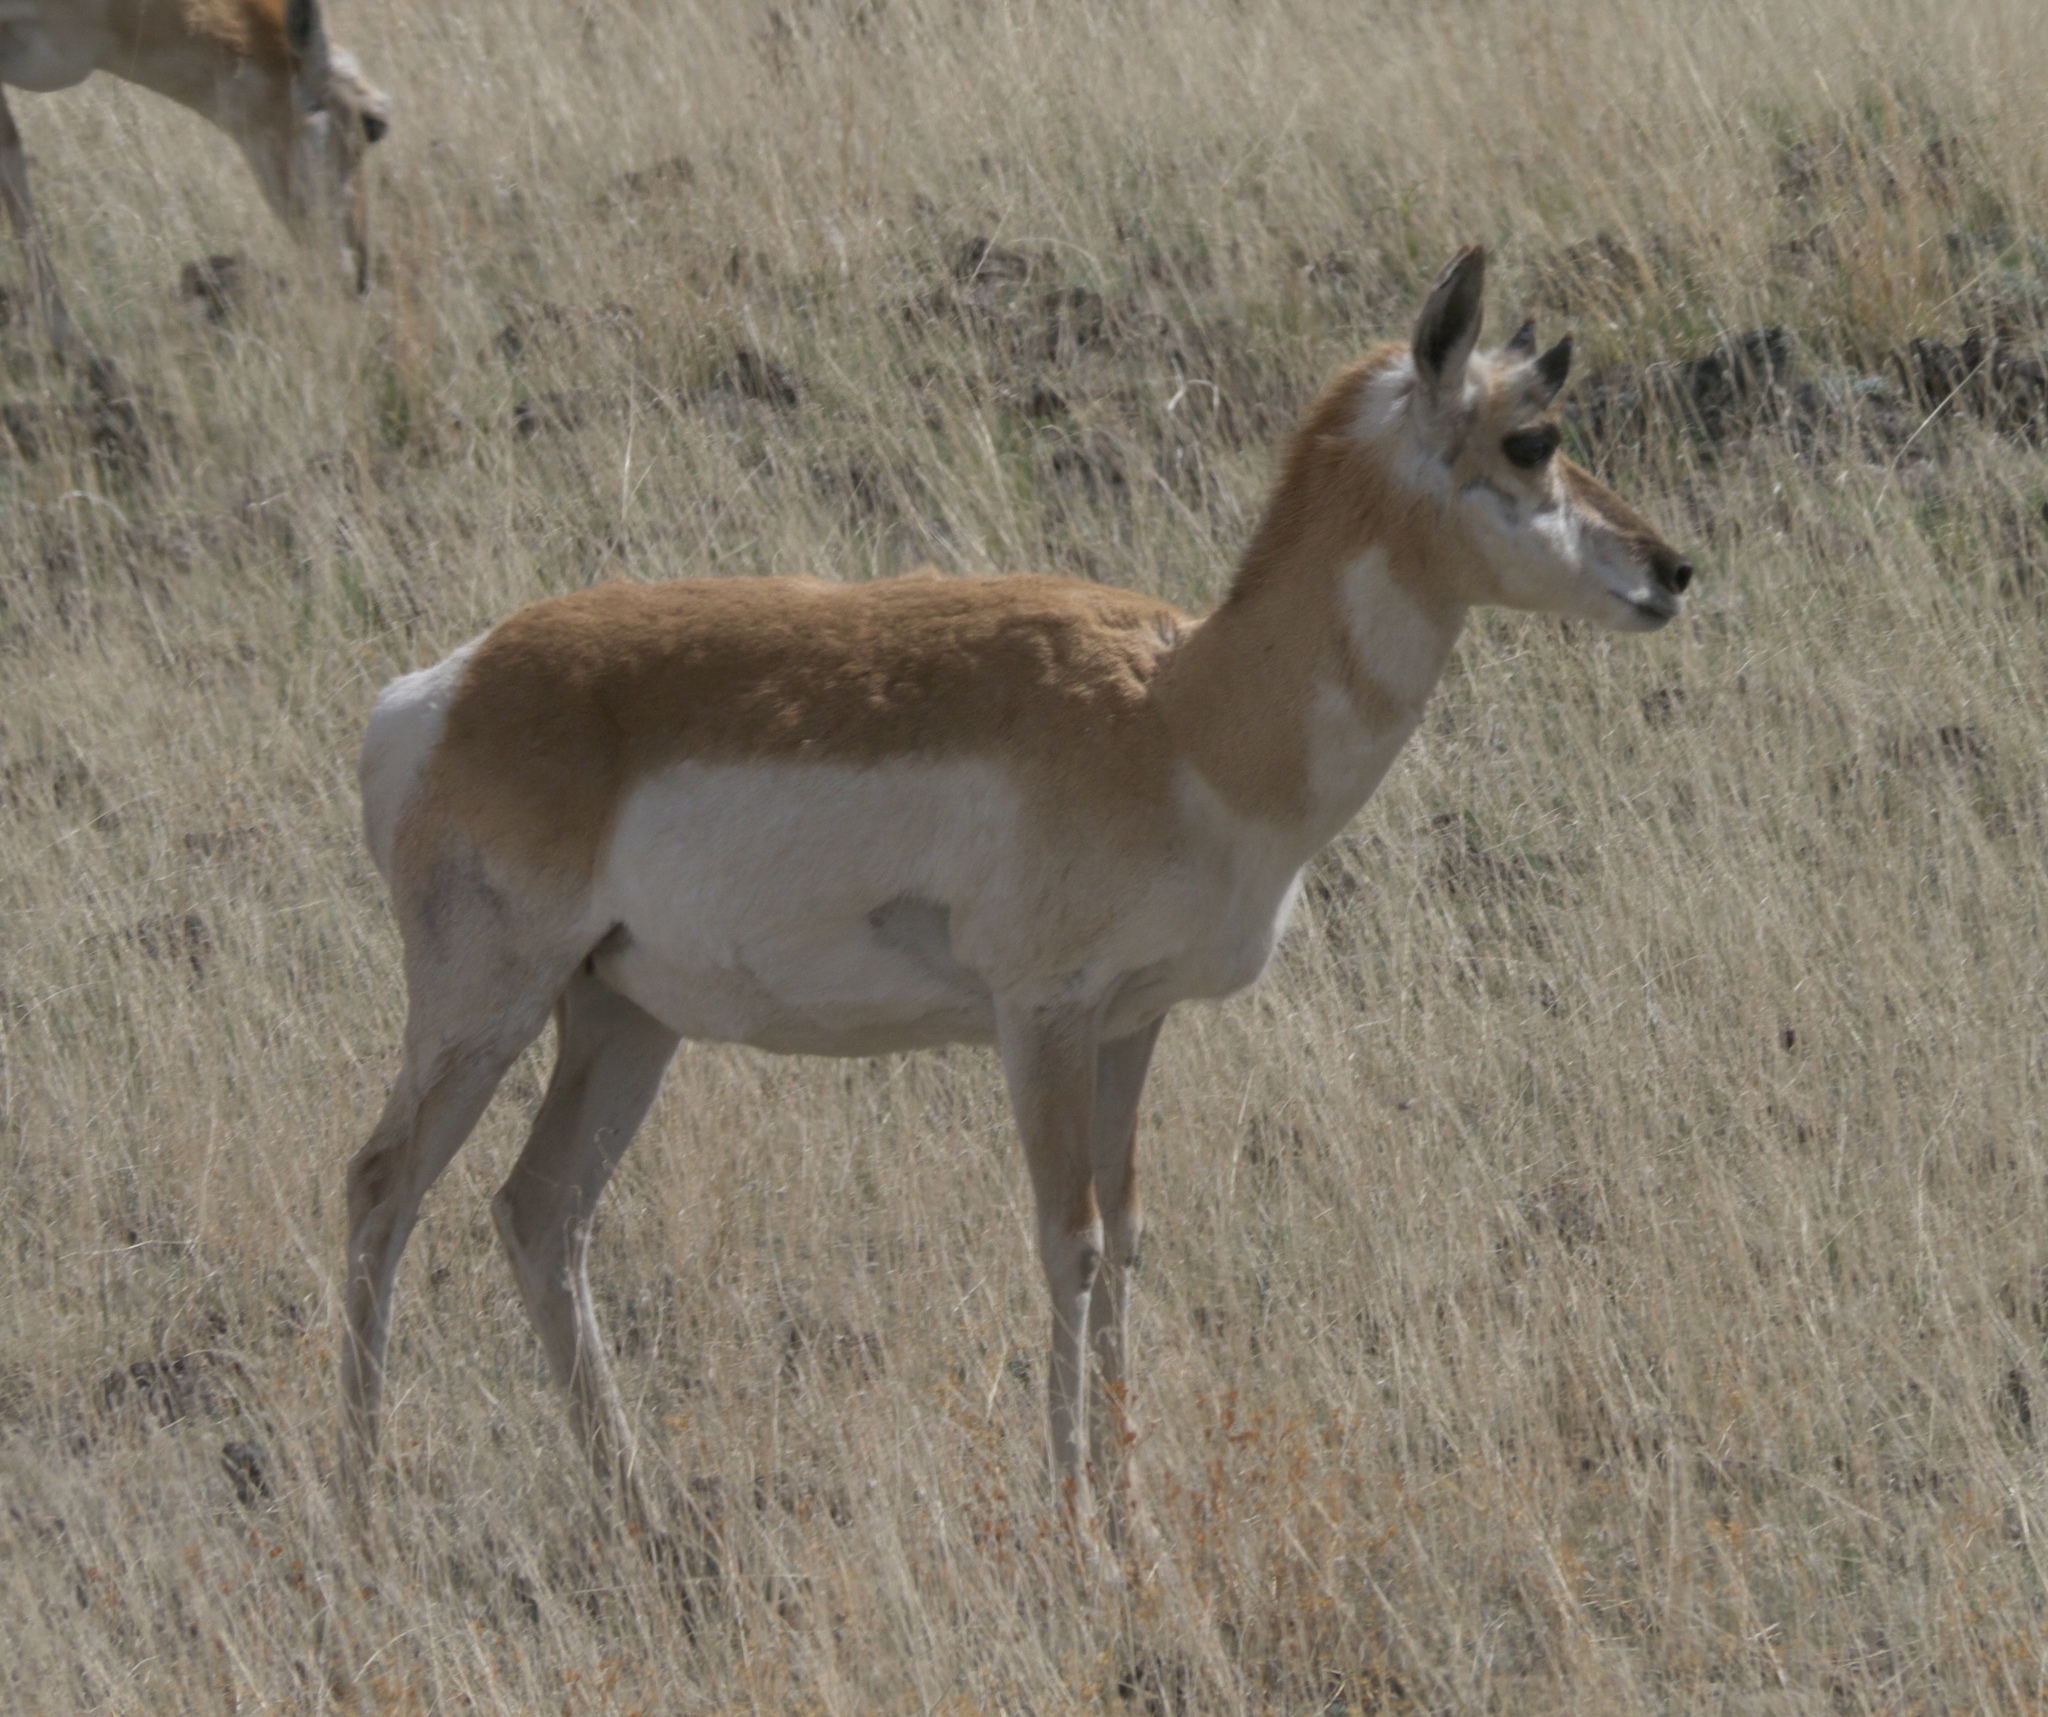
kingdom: Animalia
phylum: Chordata
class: Mammalia
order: Artiodactyla
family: Antilocapridae
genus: Antilocapra
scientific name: Antilocapra americana
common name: Pronghorn
